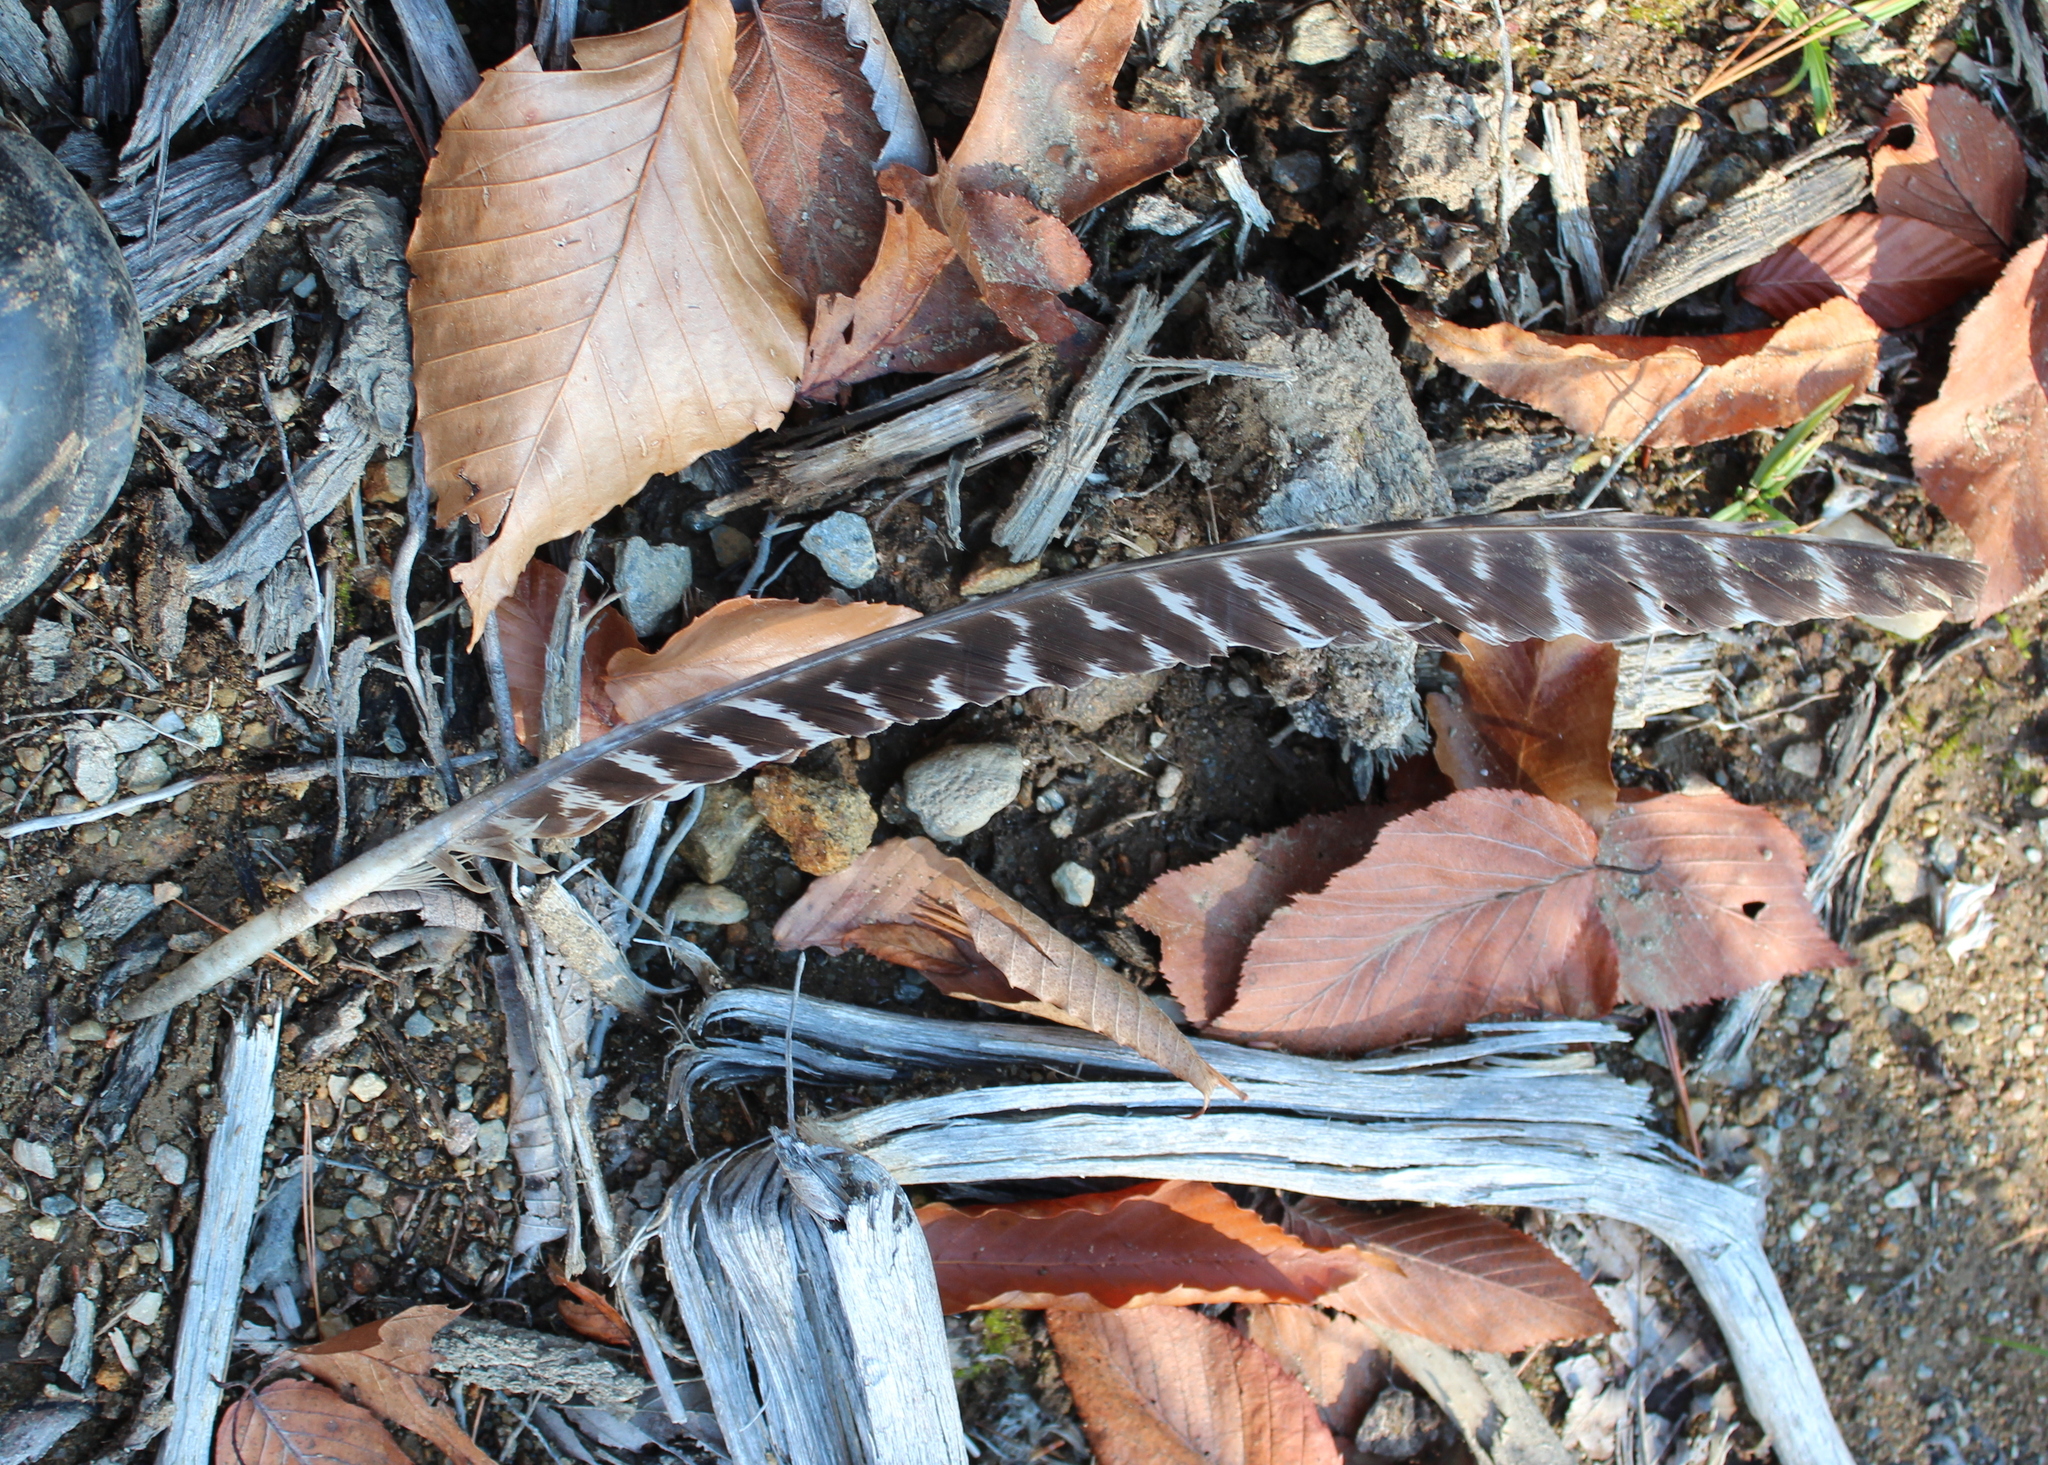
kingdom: Animalia
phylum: Chordata
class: Aves
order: Galliformes
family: Phasianidae
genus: Meleagris
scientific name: Meleagris gallopavo
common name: Wild turkey
